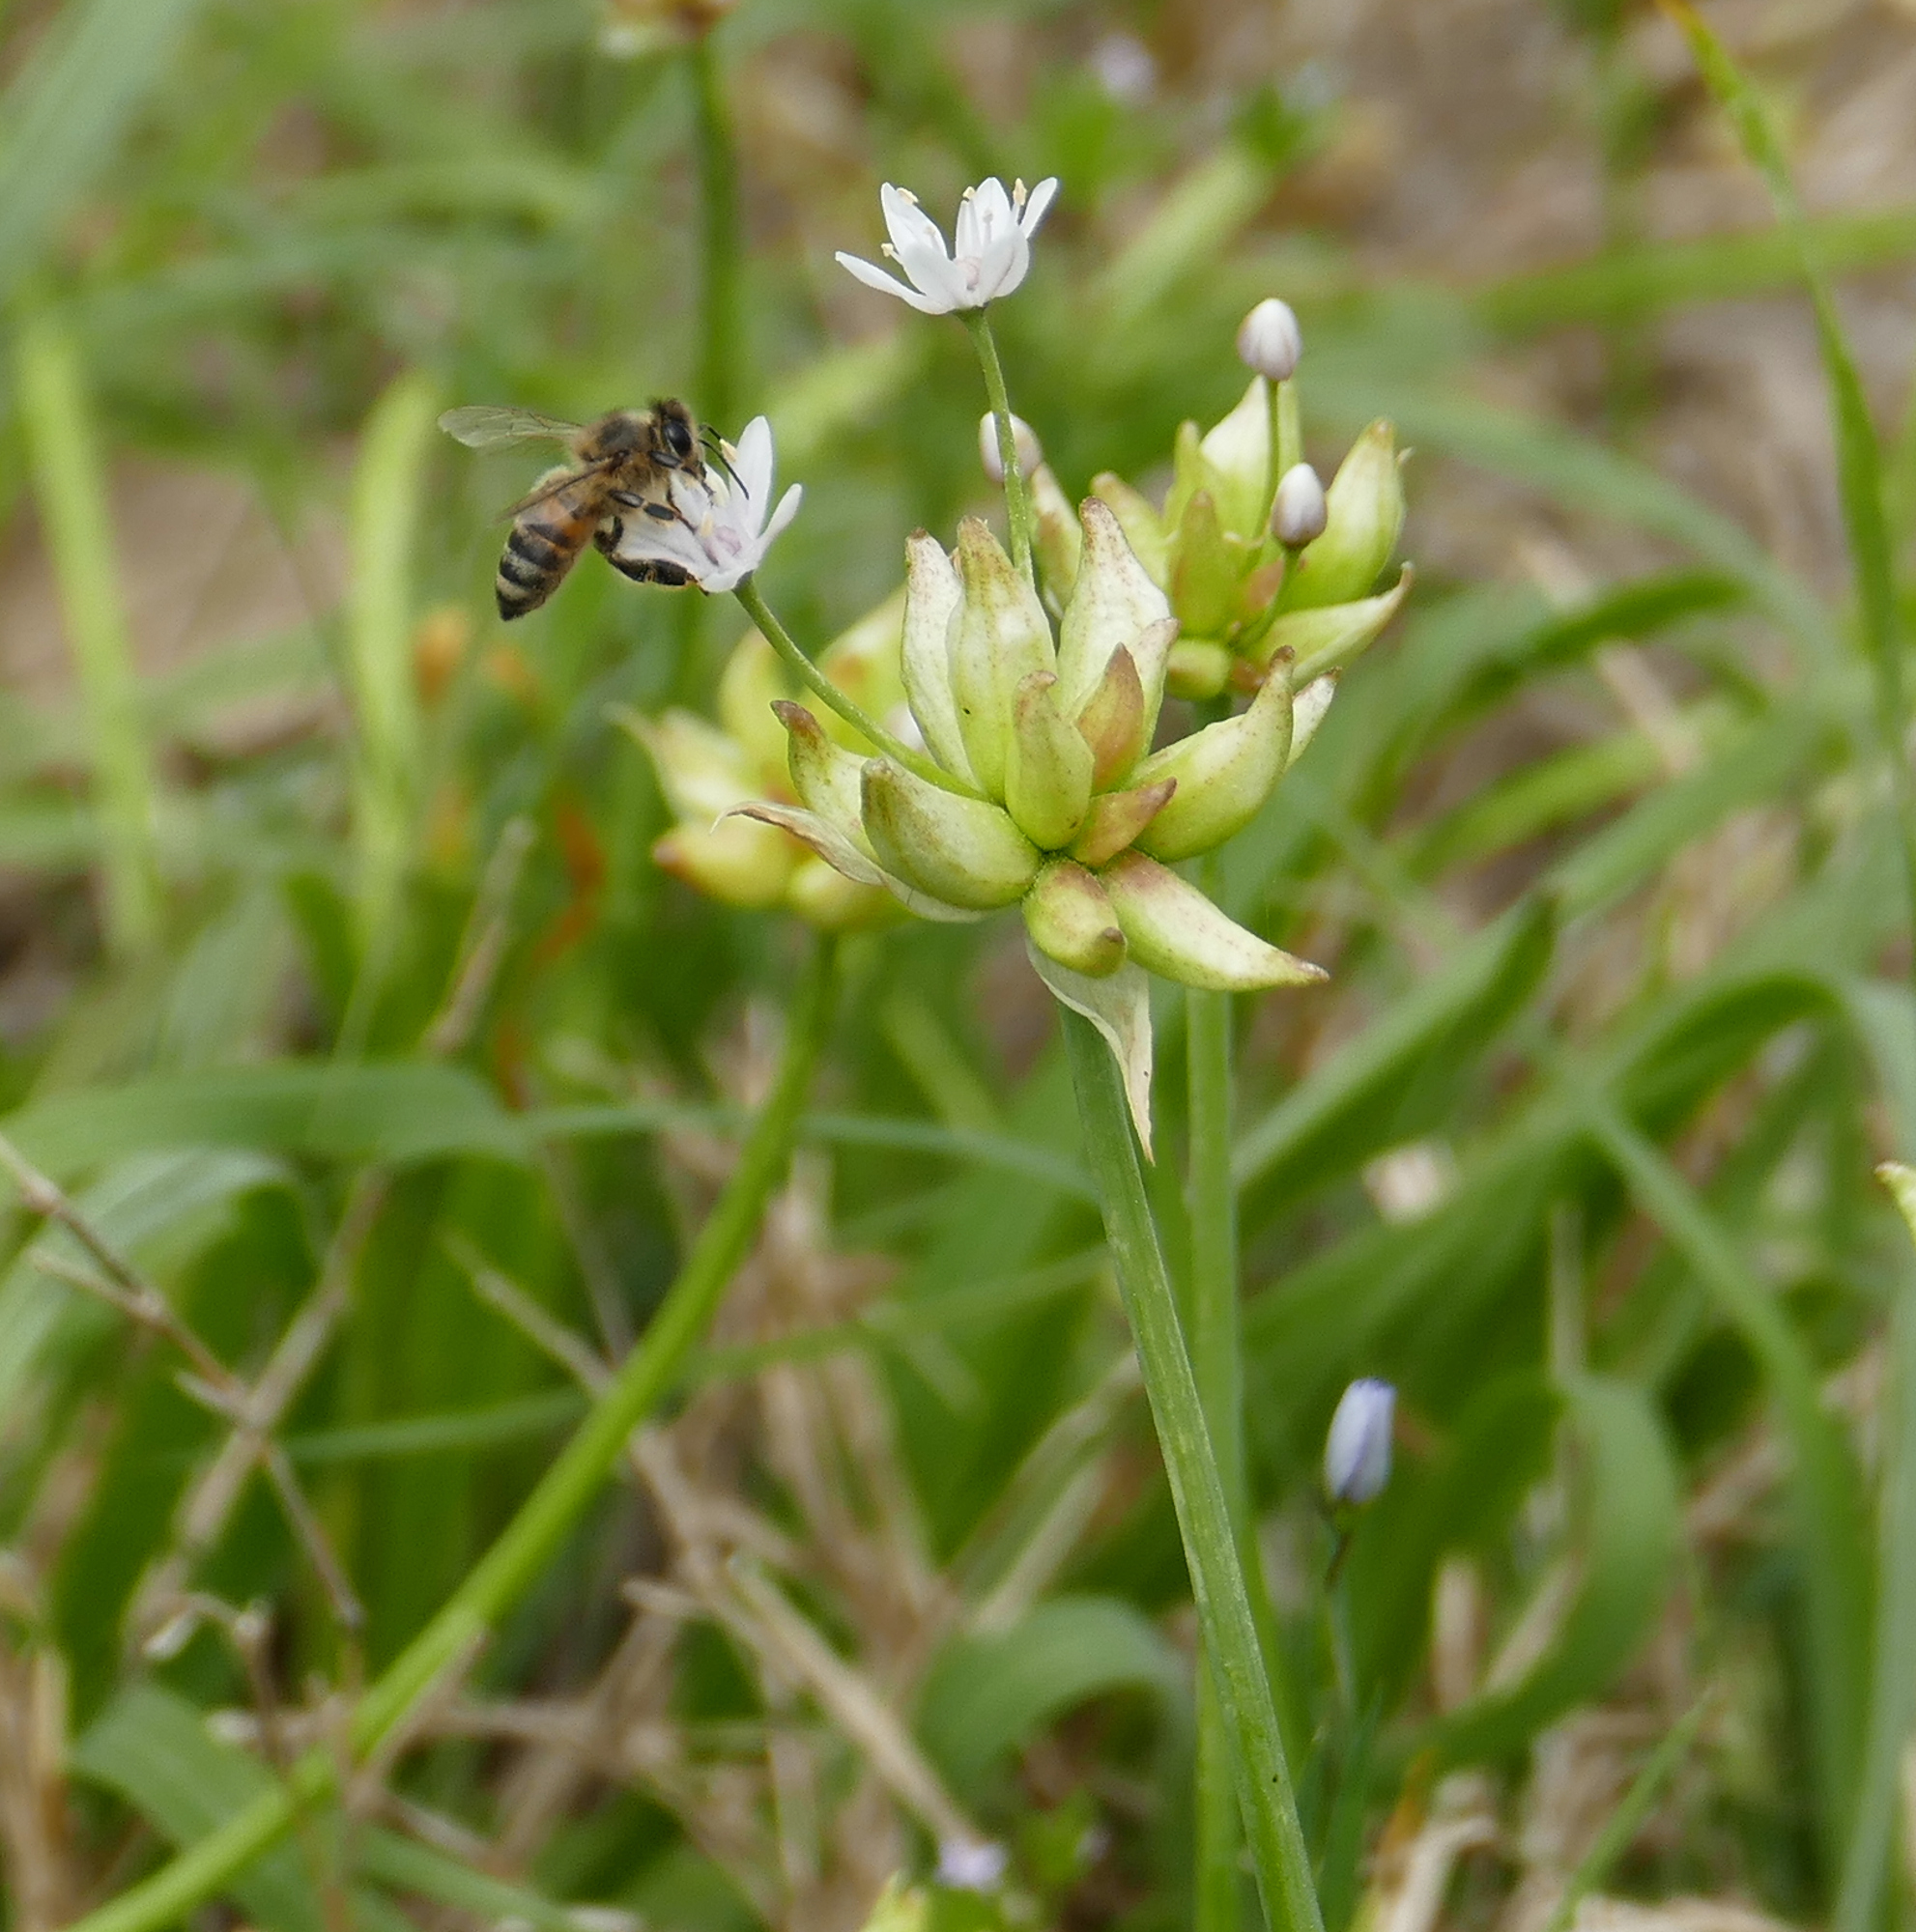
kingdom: Animalia
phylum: Arthropoda
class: Insecta
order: Hymenoptera
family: Apidae
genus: Apis
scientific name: Apis mellifera
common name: Honey bee
